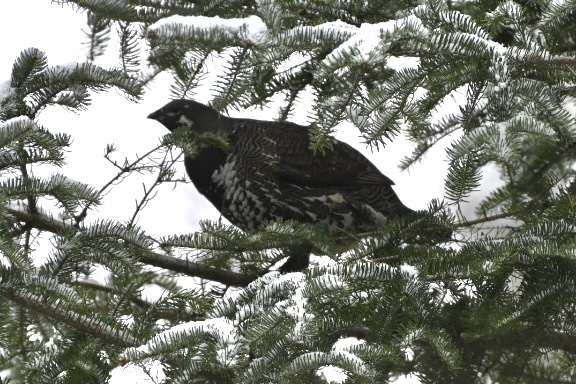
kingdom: Animalia
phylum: Chordata
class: Aves
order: Galliformes
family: Phasianidae
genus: Canachites
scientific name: Canachites canadensis
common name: Spruce grouse
